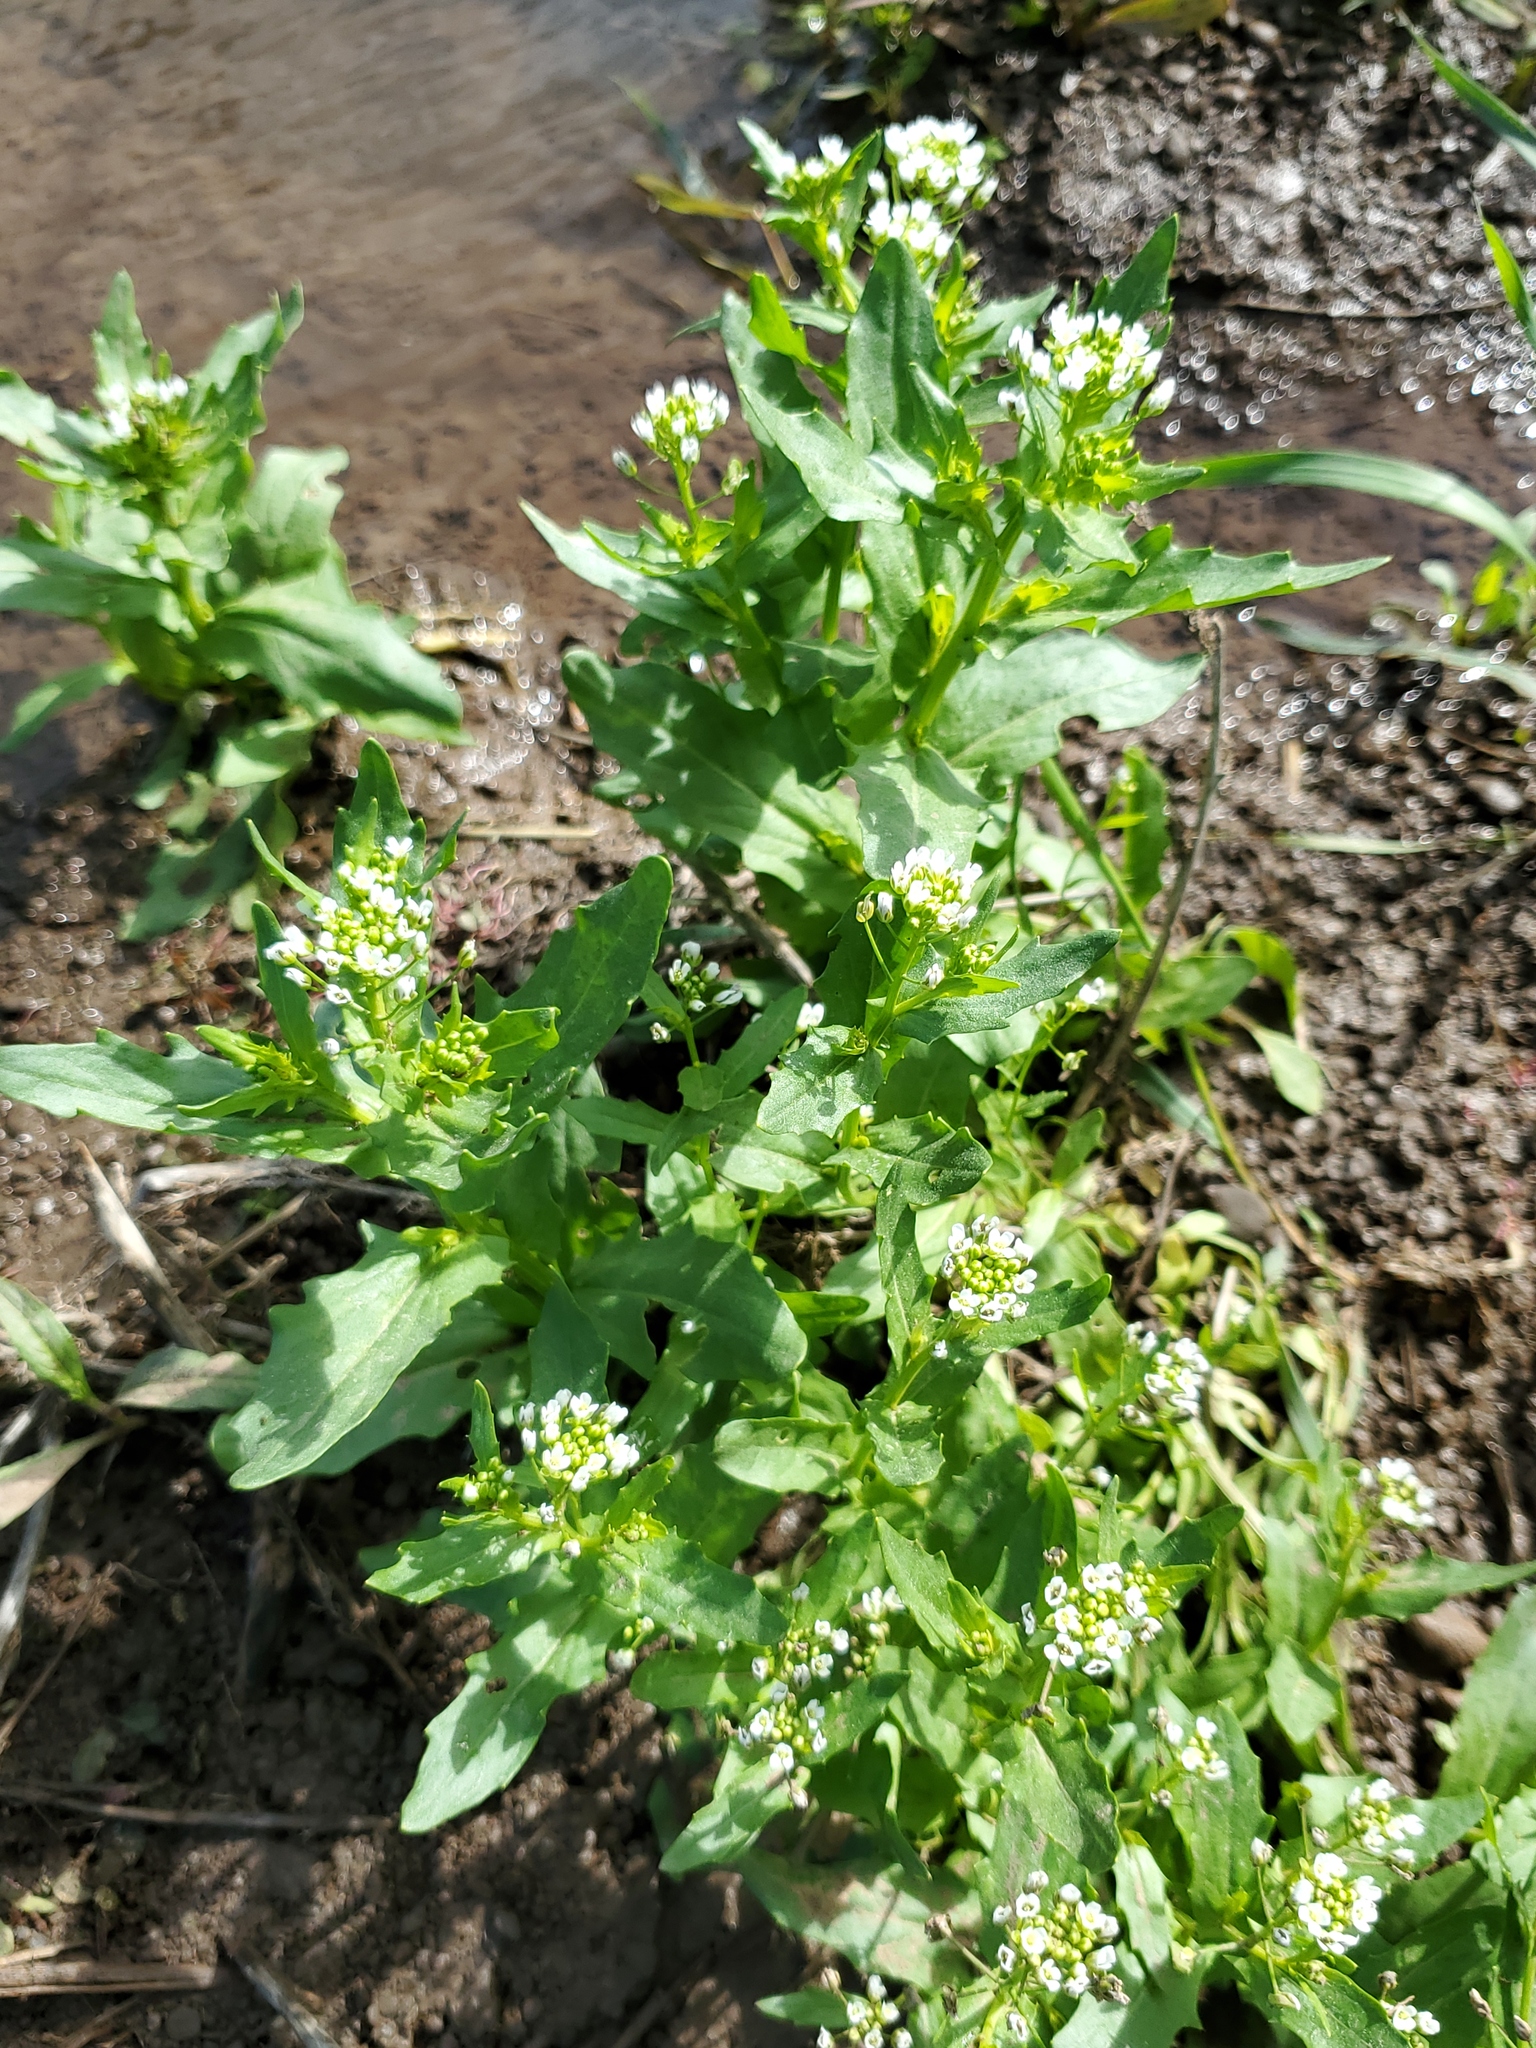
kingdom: Plantae
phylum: Tracheophyta
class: Magnoliopsida
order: Brassicales
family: Brassicaceae
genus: Thlaspi
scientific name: Thlaspi arvense
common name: Field pennycress
